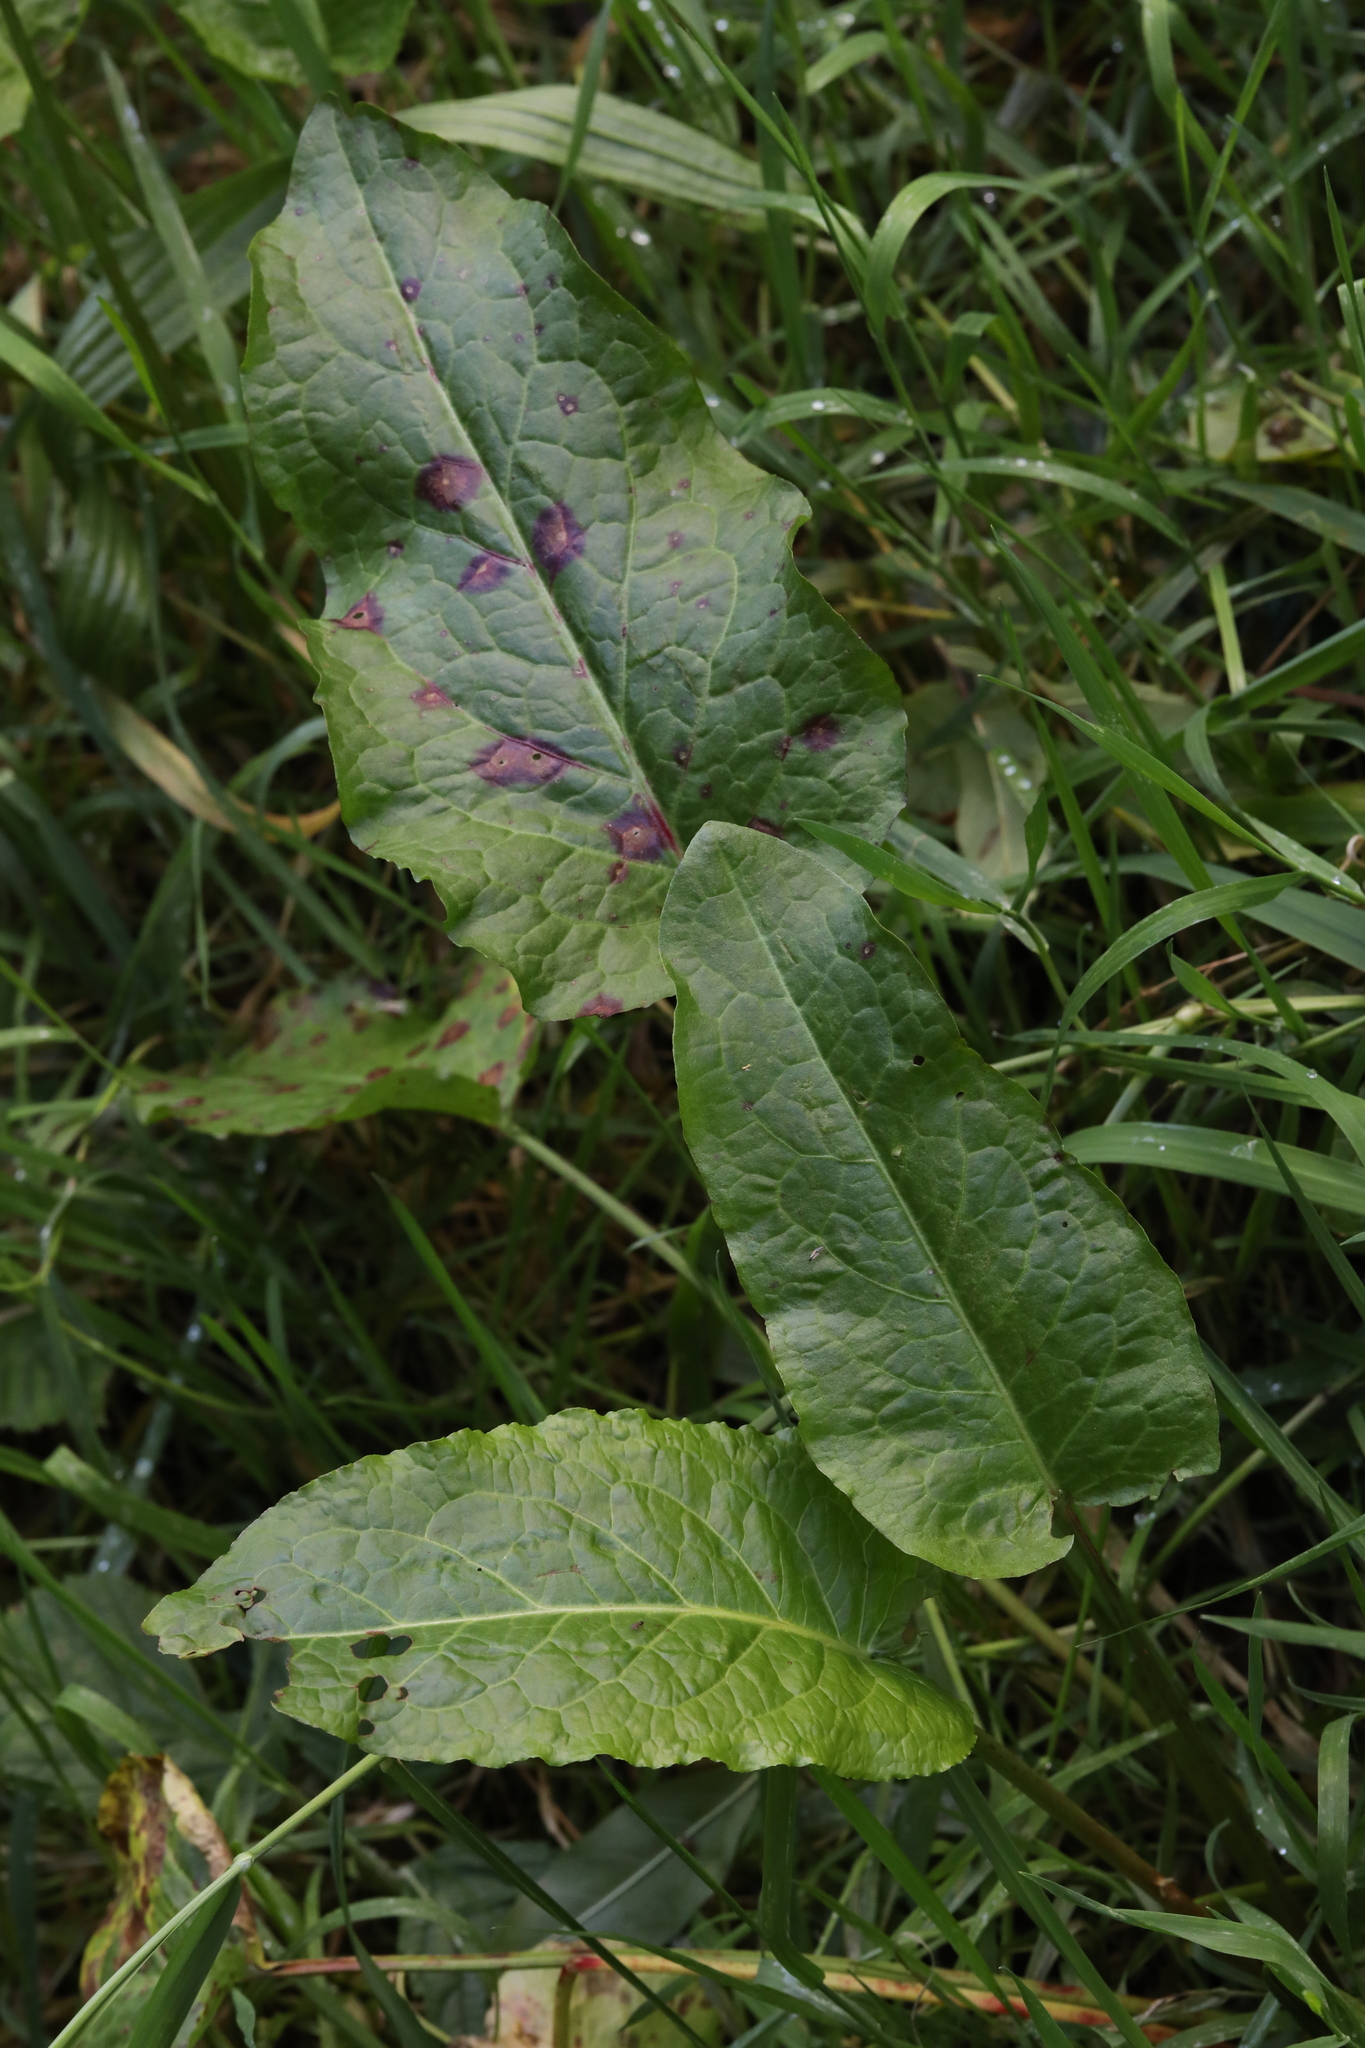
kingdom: Plantae
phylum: Tracheophyta
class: Magnoliopsida
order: Caryophyllales
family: Polygonaceae
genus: Rumex
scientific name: Rumex obtusifolius
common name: Bitter dock
